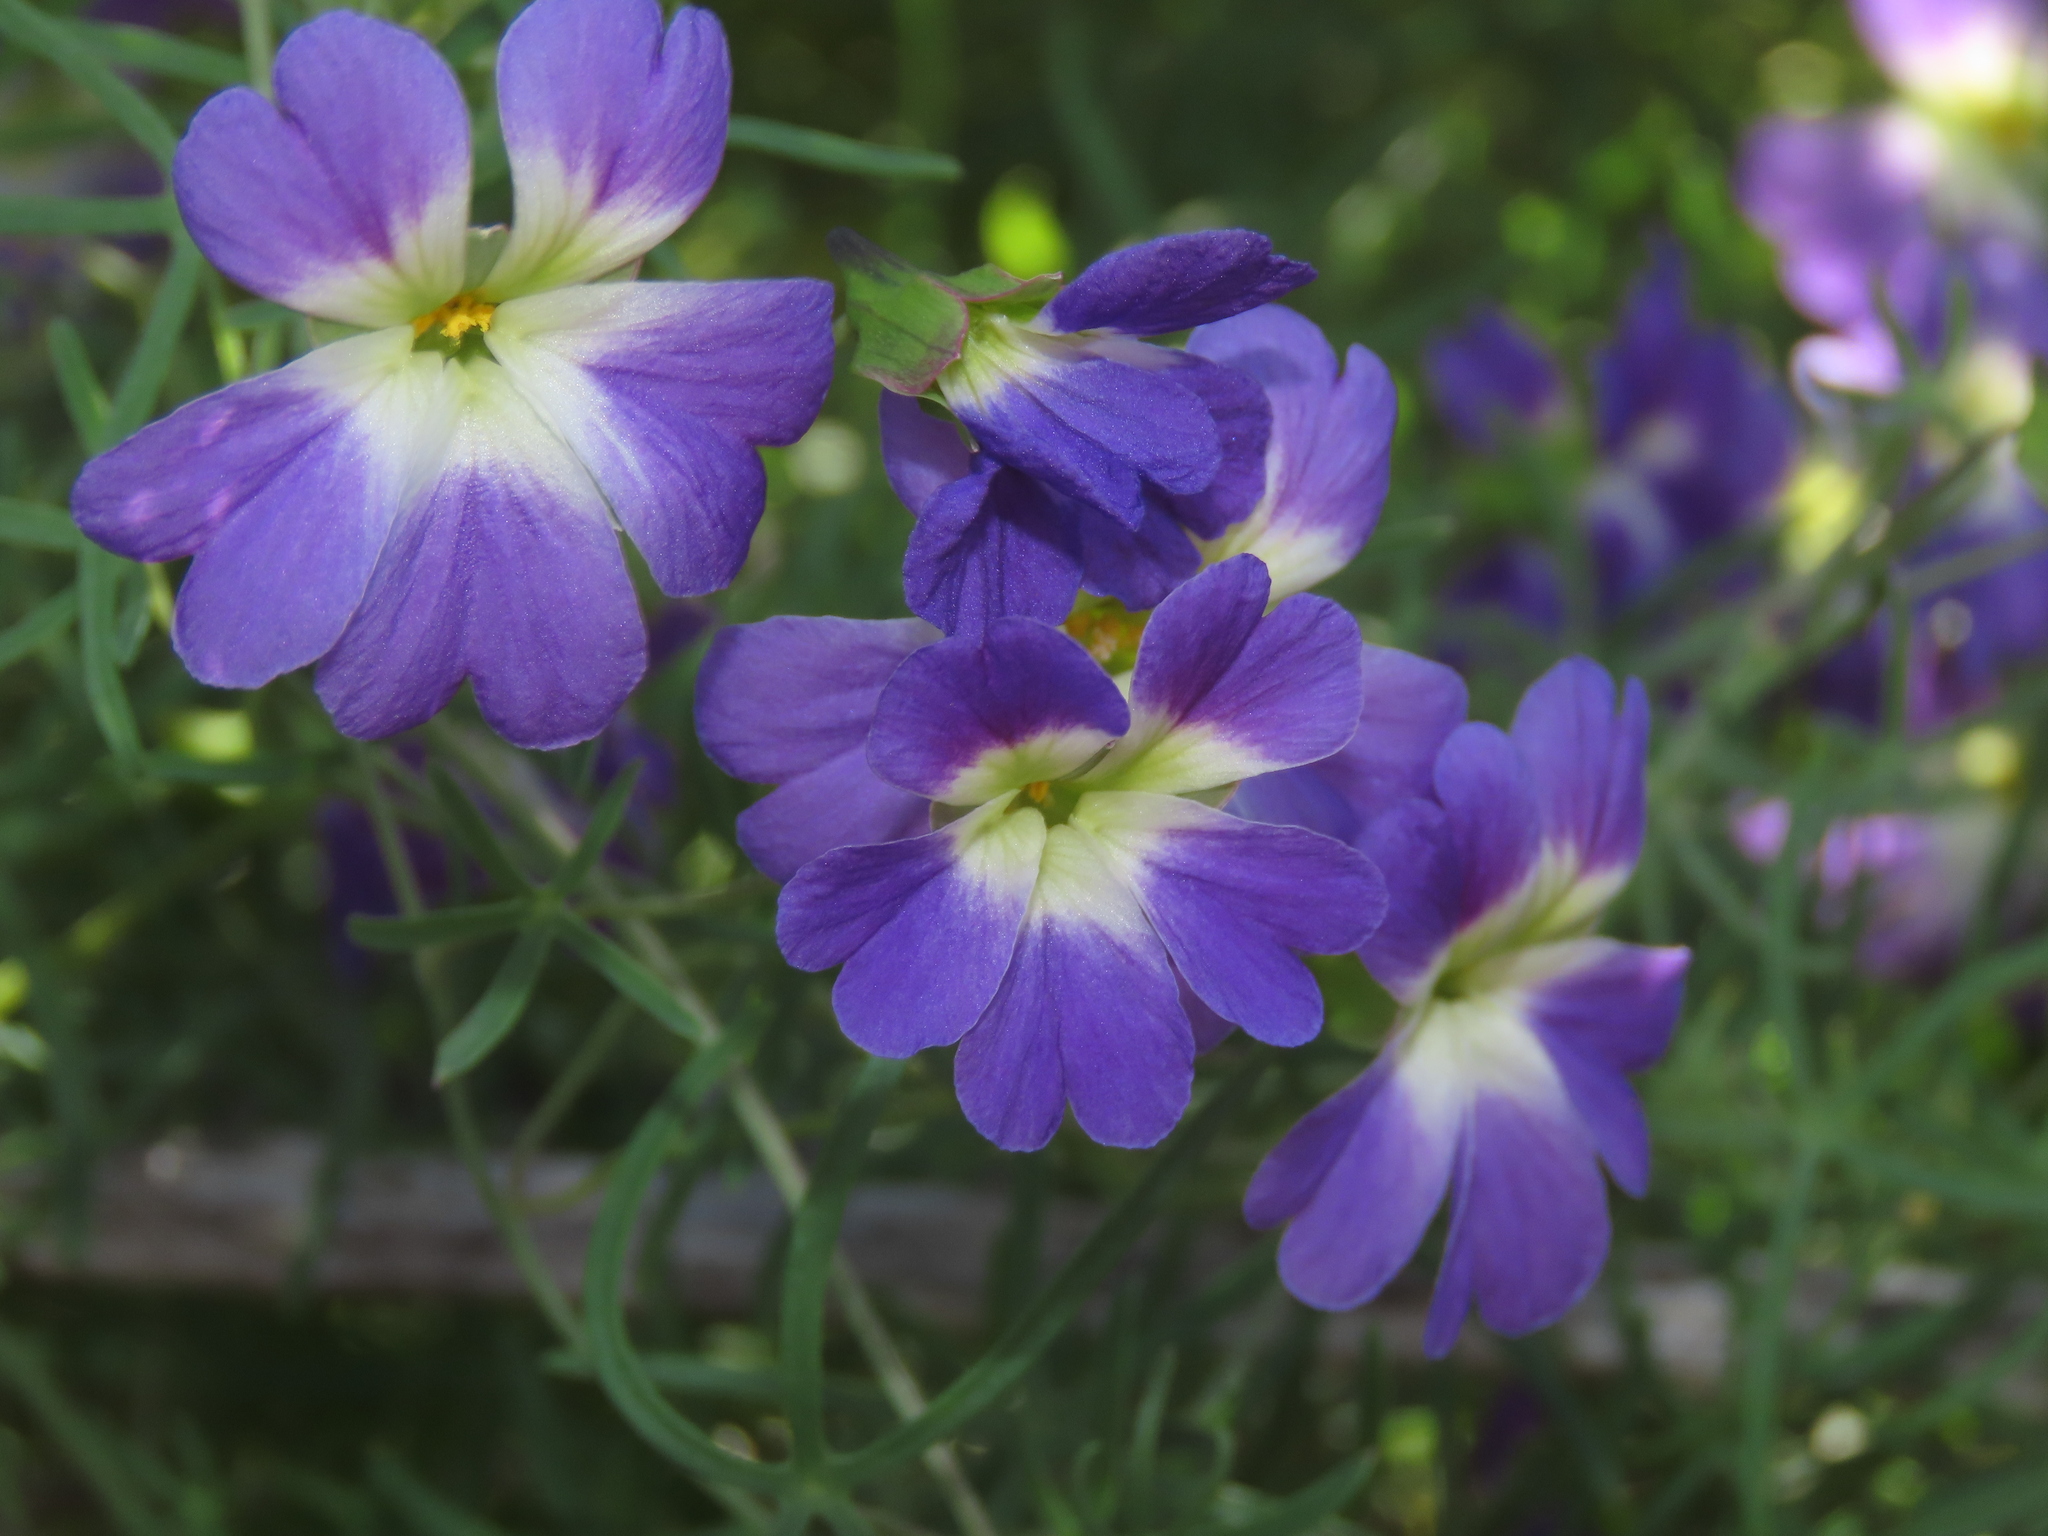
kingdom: Plantae
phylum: Tracheophyta
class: Magnoliopsida
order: Brassicales
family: Tropaeolaceae
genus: Tropaeolum
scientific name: Tropaeolum azureum
